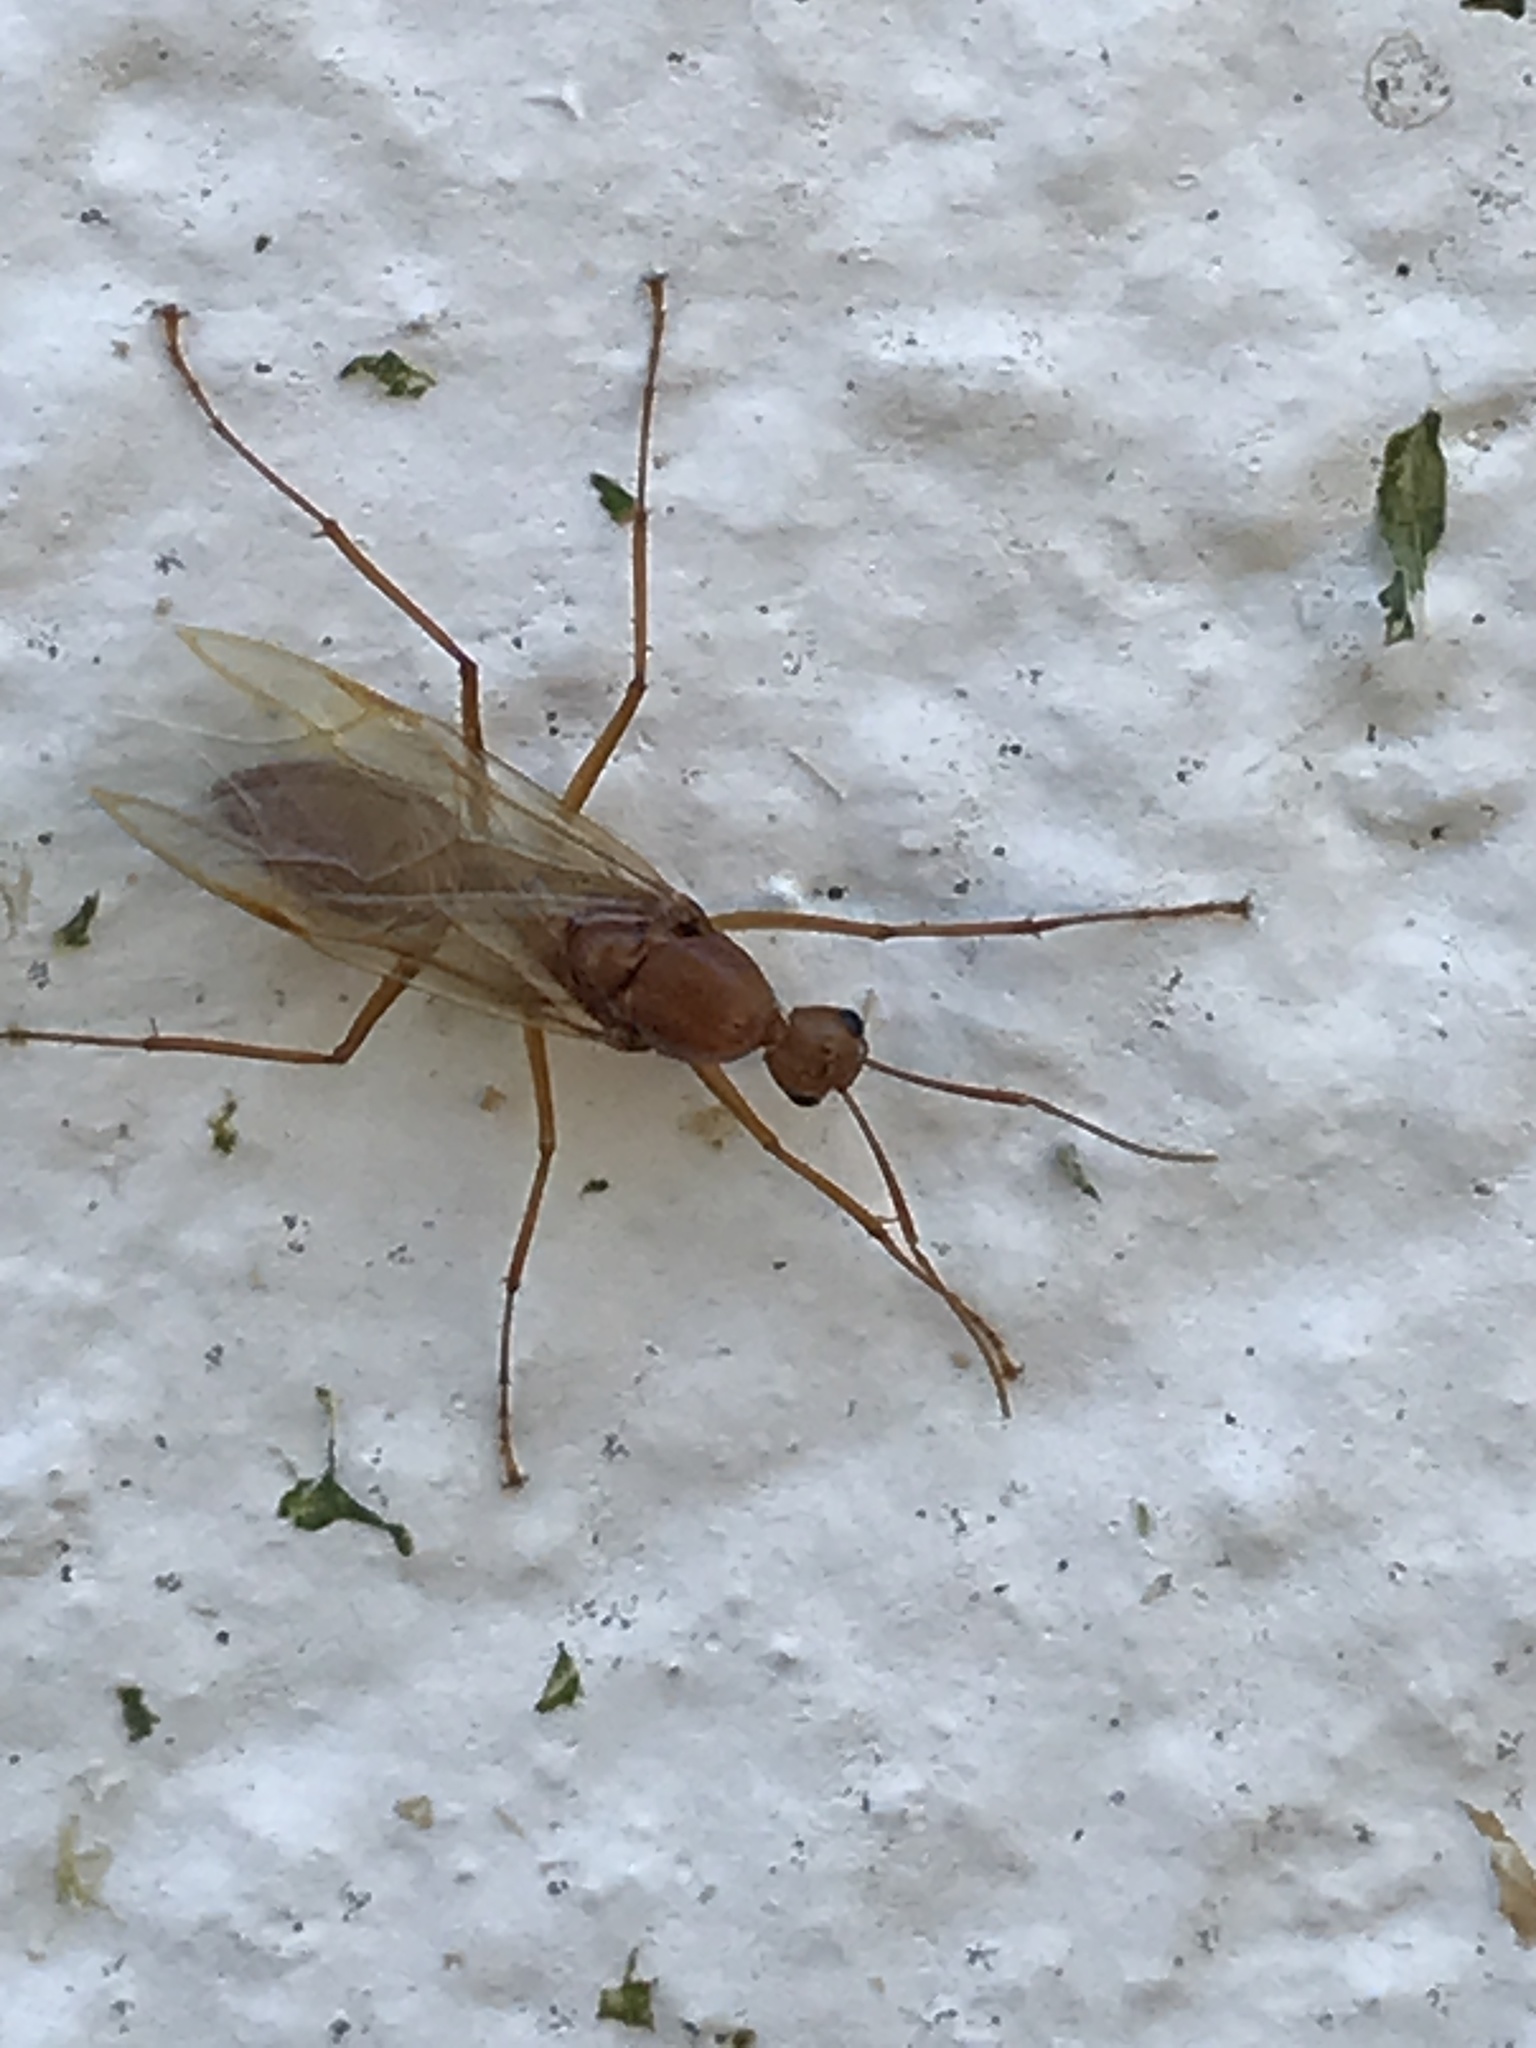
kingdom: Animalia
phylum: Arthropoda
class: Insecta
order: Hymenoptera
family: Formicidae
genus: Camponotus
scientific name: Camponotus castaneus
